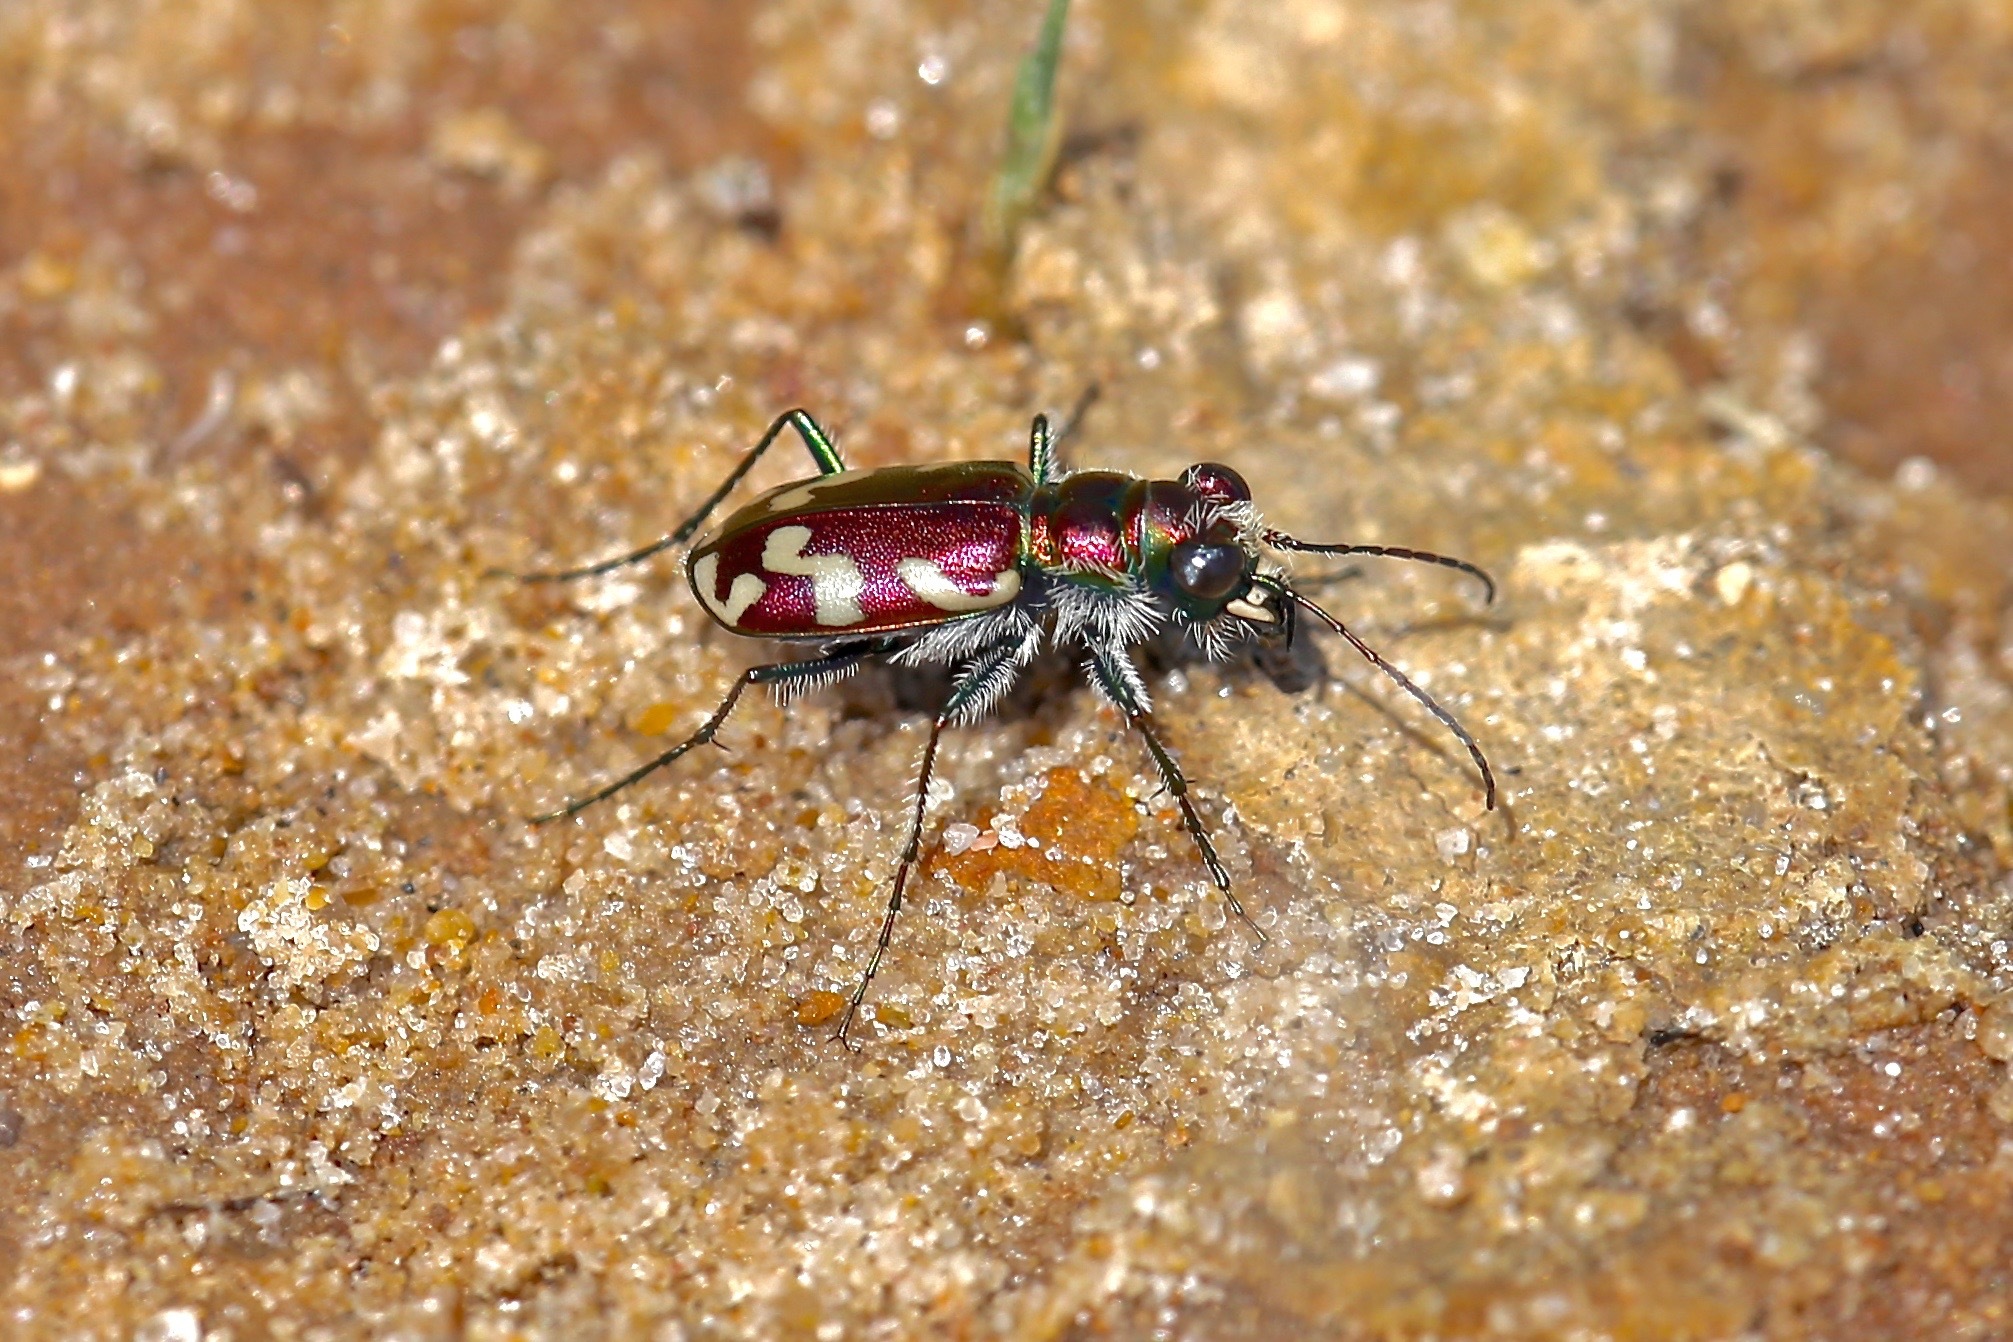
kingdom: Animalia
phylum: Arthropoda
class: Insecta
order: Coleoptera
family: Carabidae
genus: Cicindela
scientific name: Cicindela fulgida
